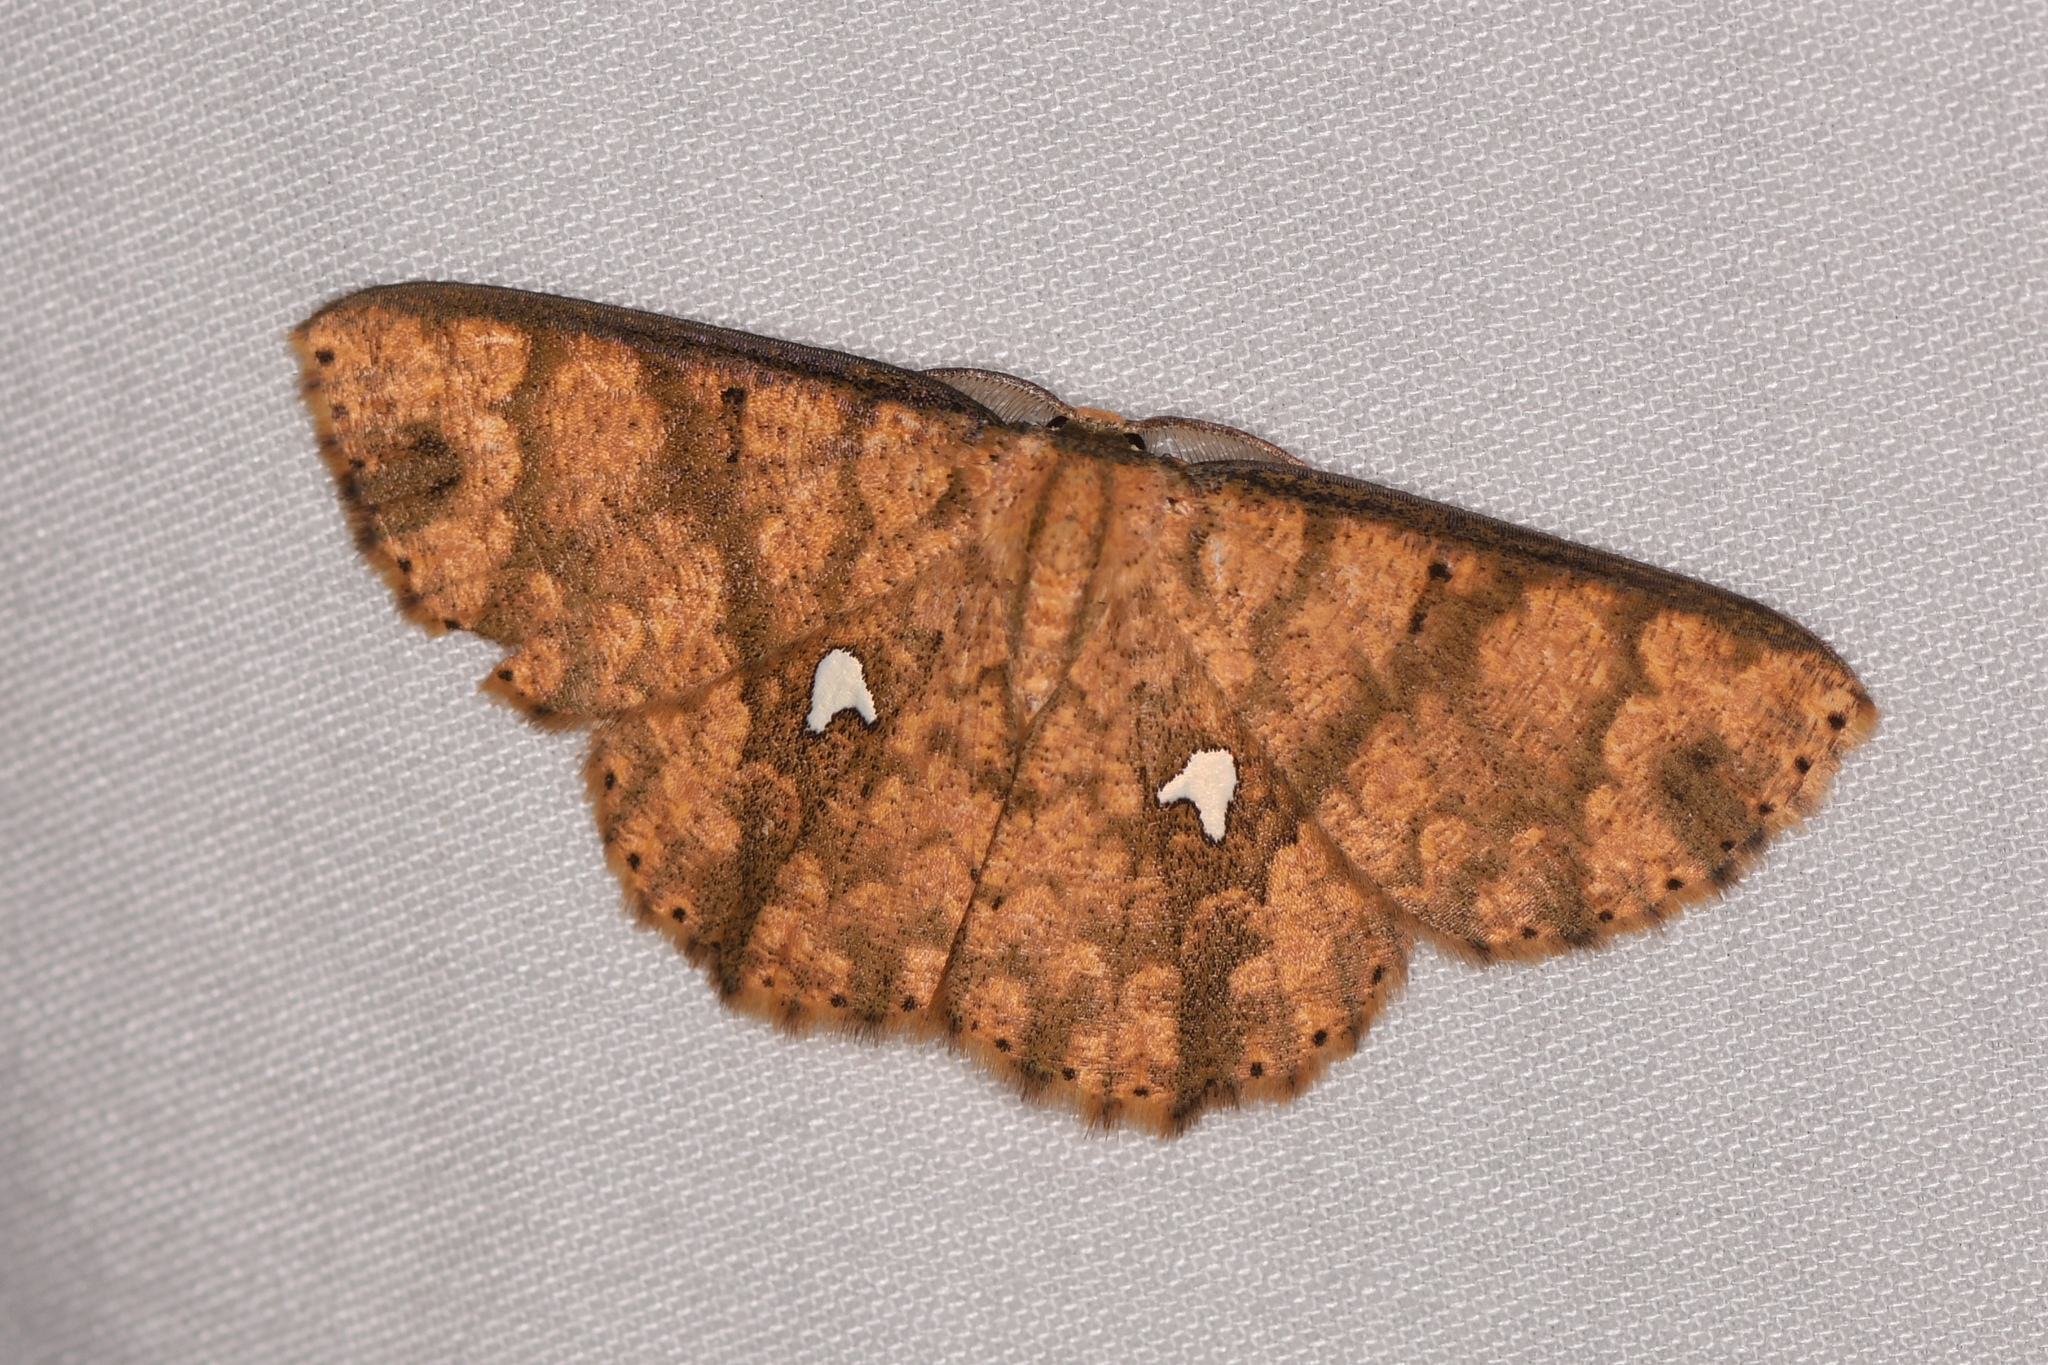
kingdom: Animalia
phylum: Arthropoda
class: Insecta
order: Lepidoptera
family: Geometridae
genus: Cyclophora
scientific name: Cyclophora nodigera
